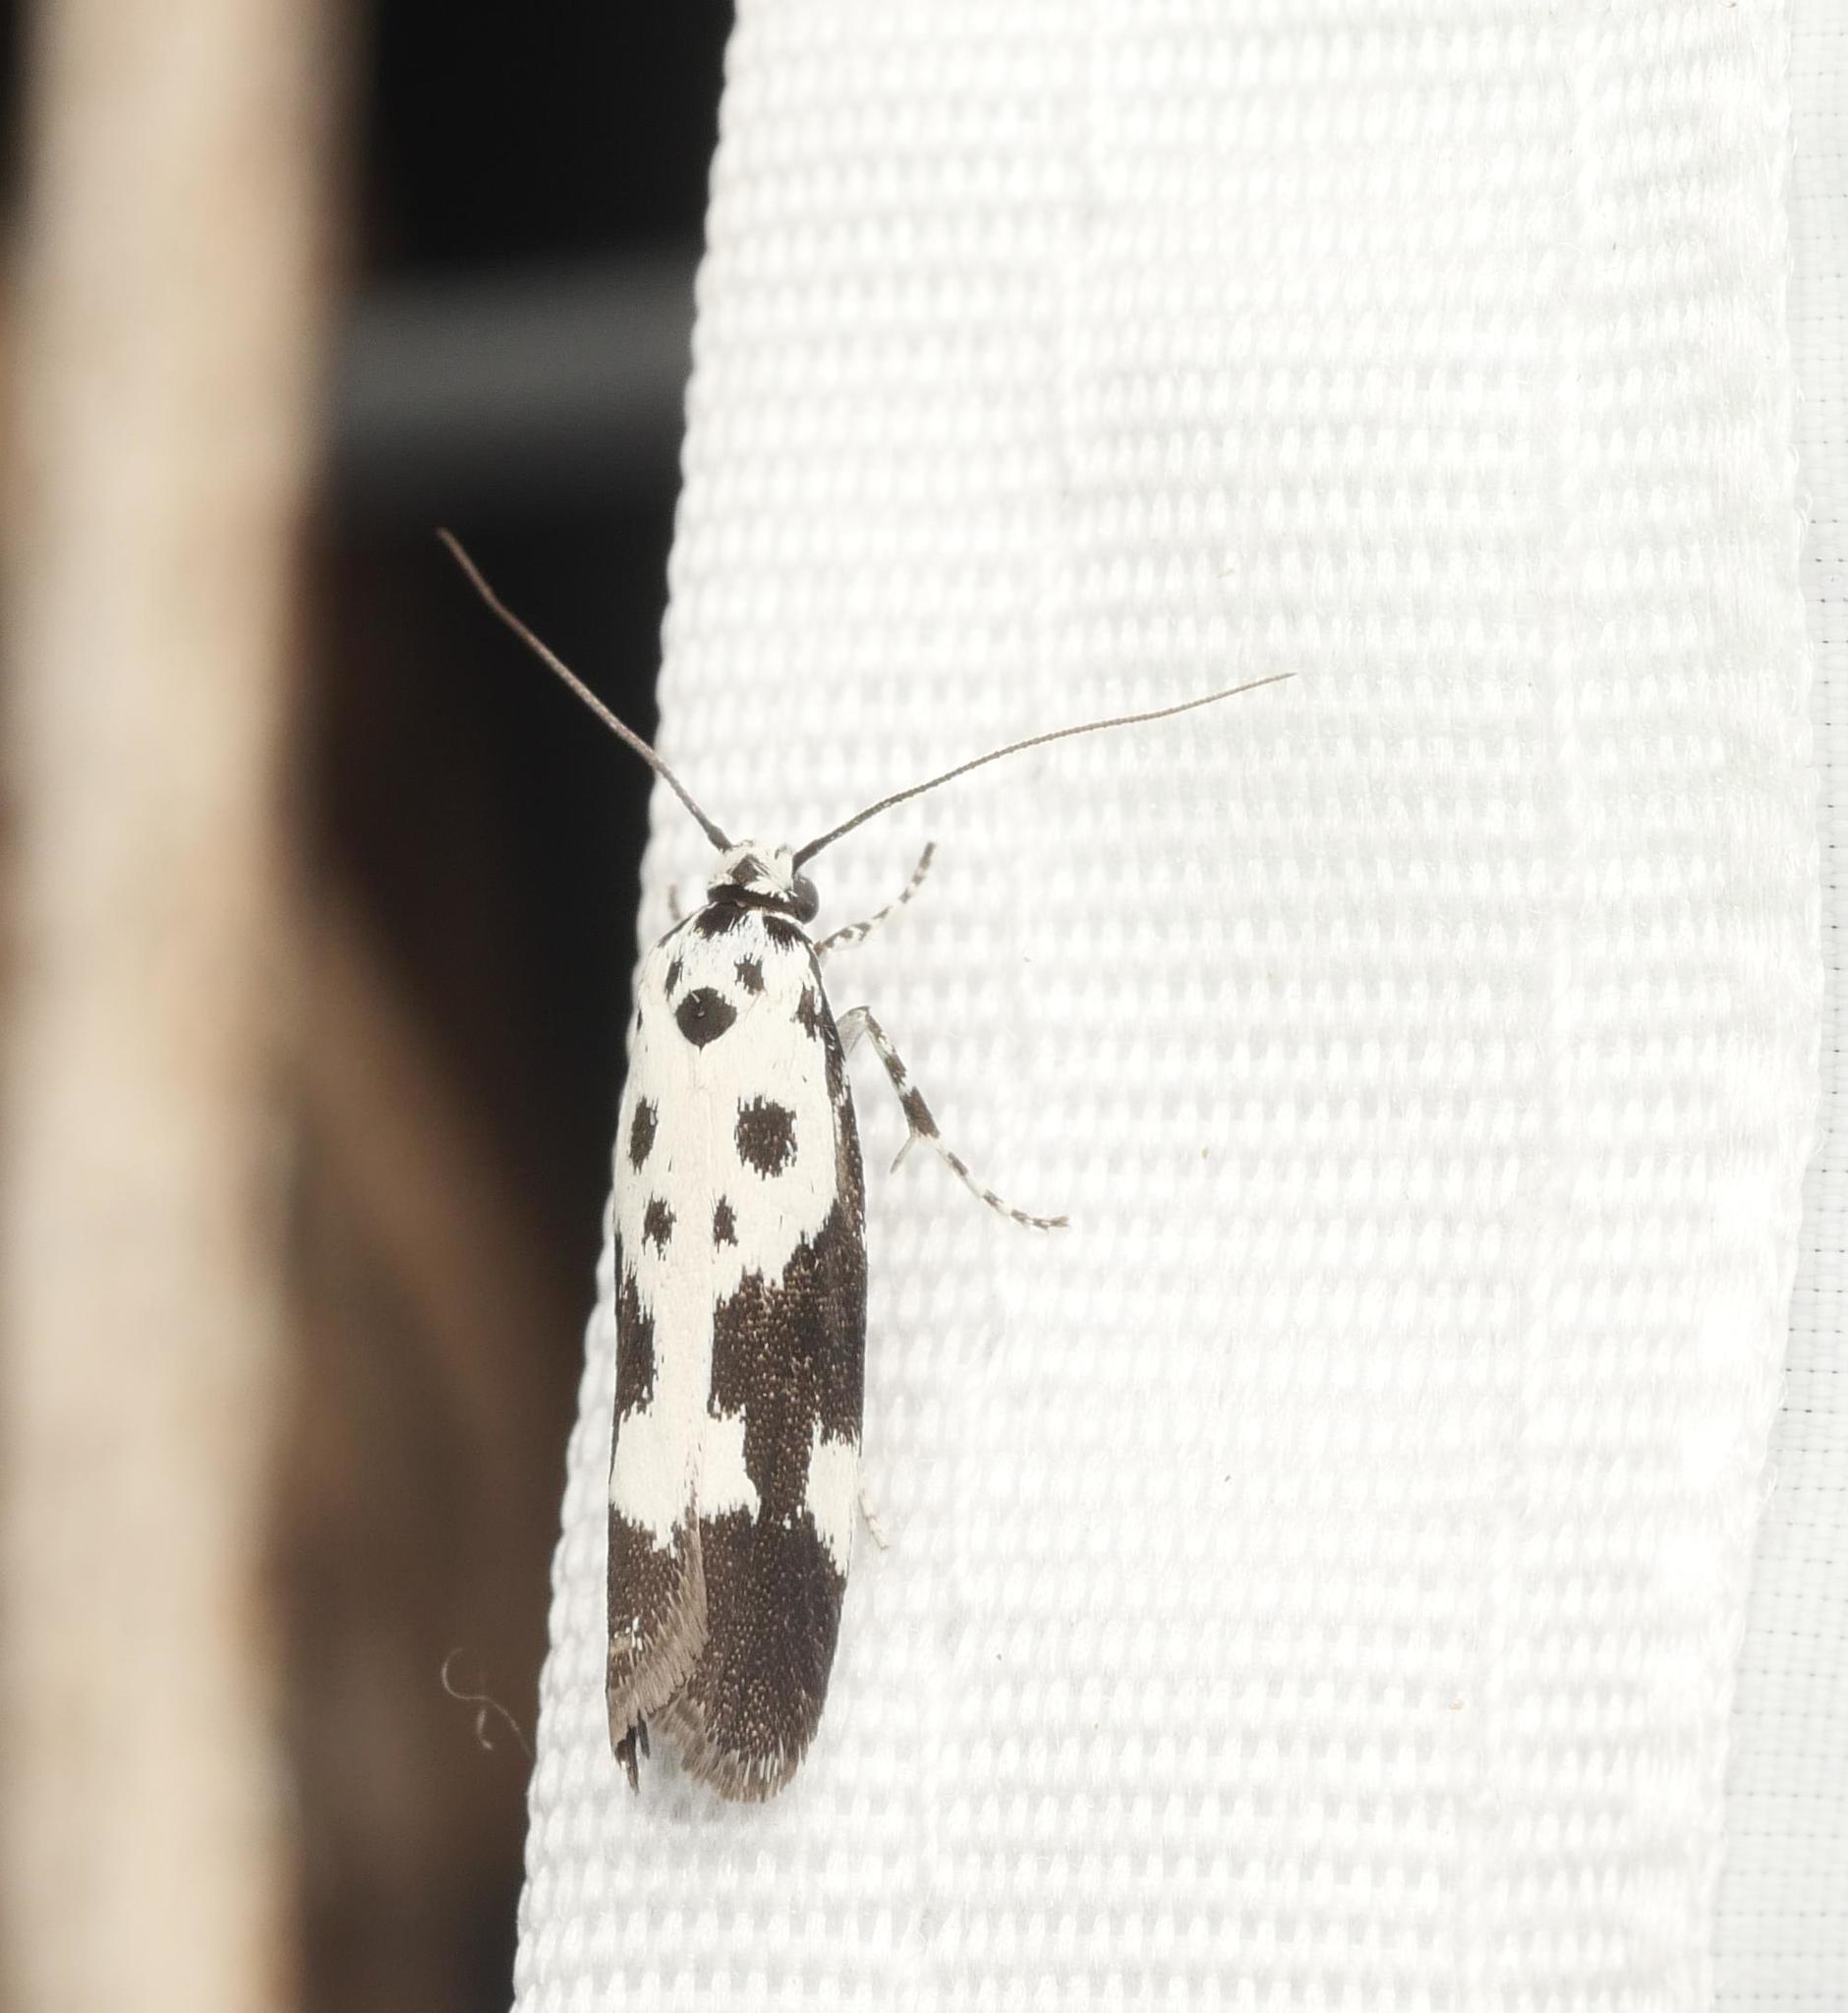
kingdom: Animalia
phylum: Arthropoda
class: Insecta
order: Lepidoptera
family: Ethmiidae
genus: Ethmia
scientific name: Ethmia quadrillella
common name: Comfrey ermel
